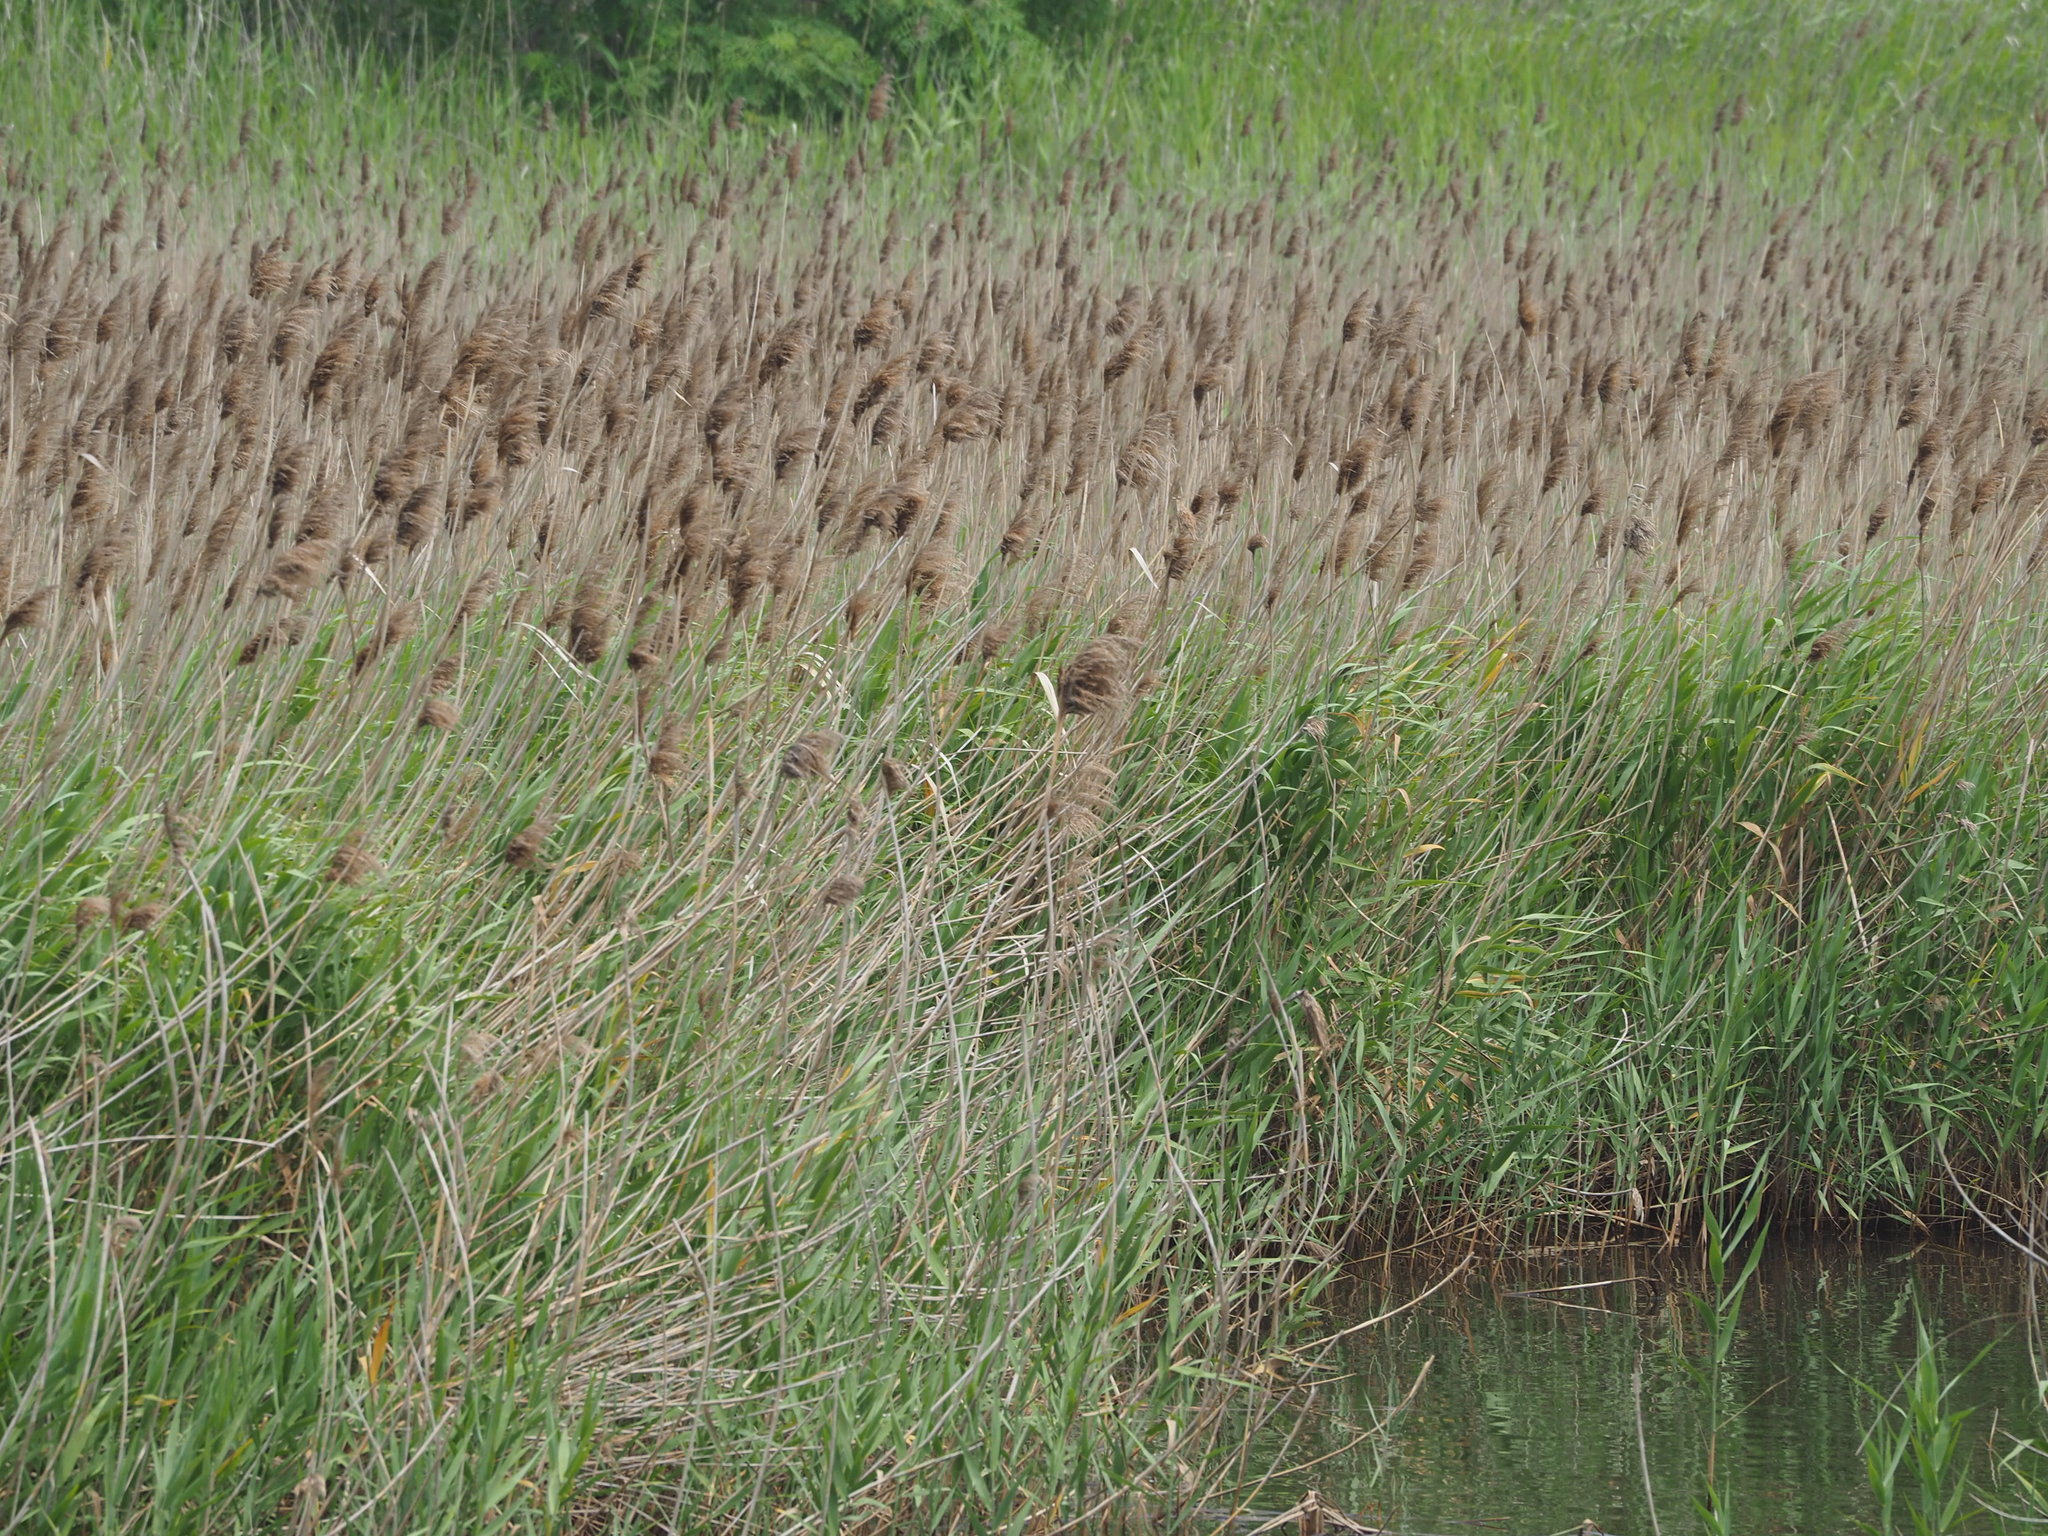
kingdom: Plantae
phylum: Tracheophyta
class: Liliopsida
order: Poales
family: Poaceae
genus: Phragmites
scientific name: Phragmites australis
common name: Common reed
